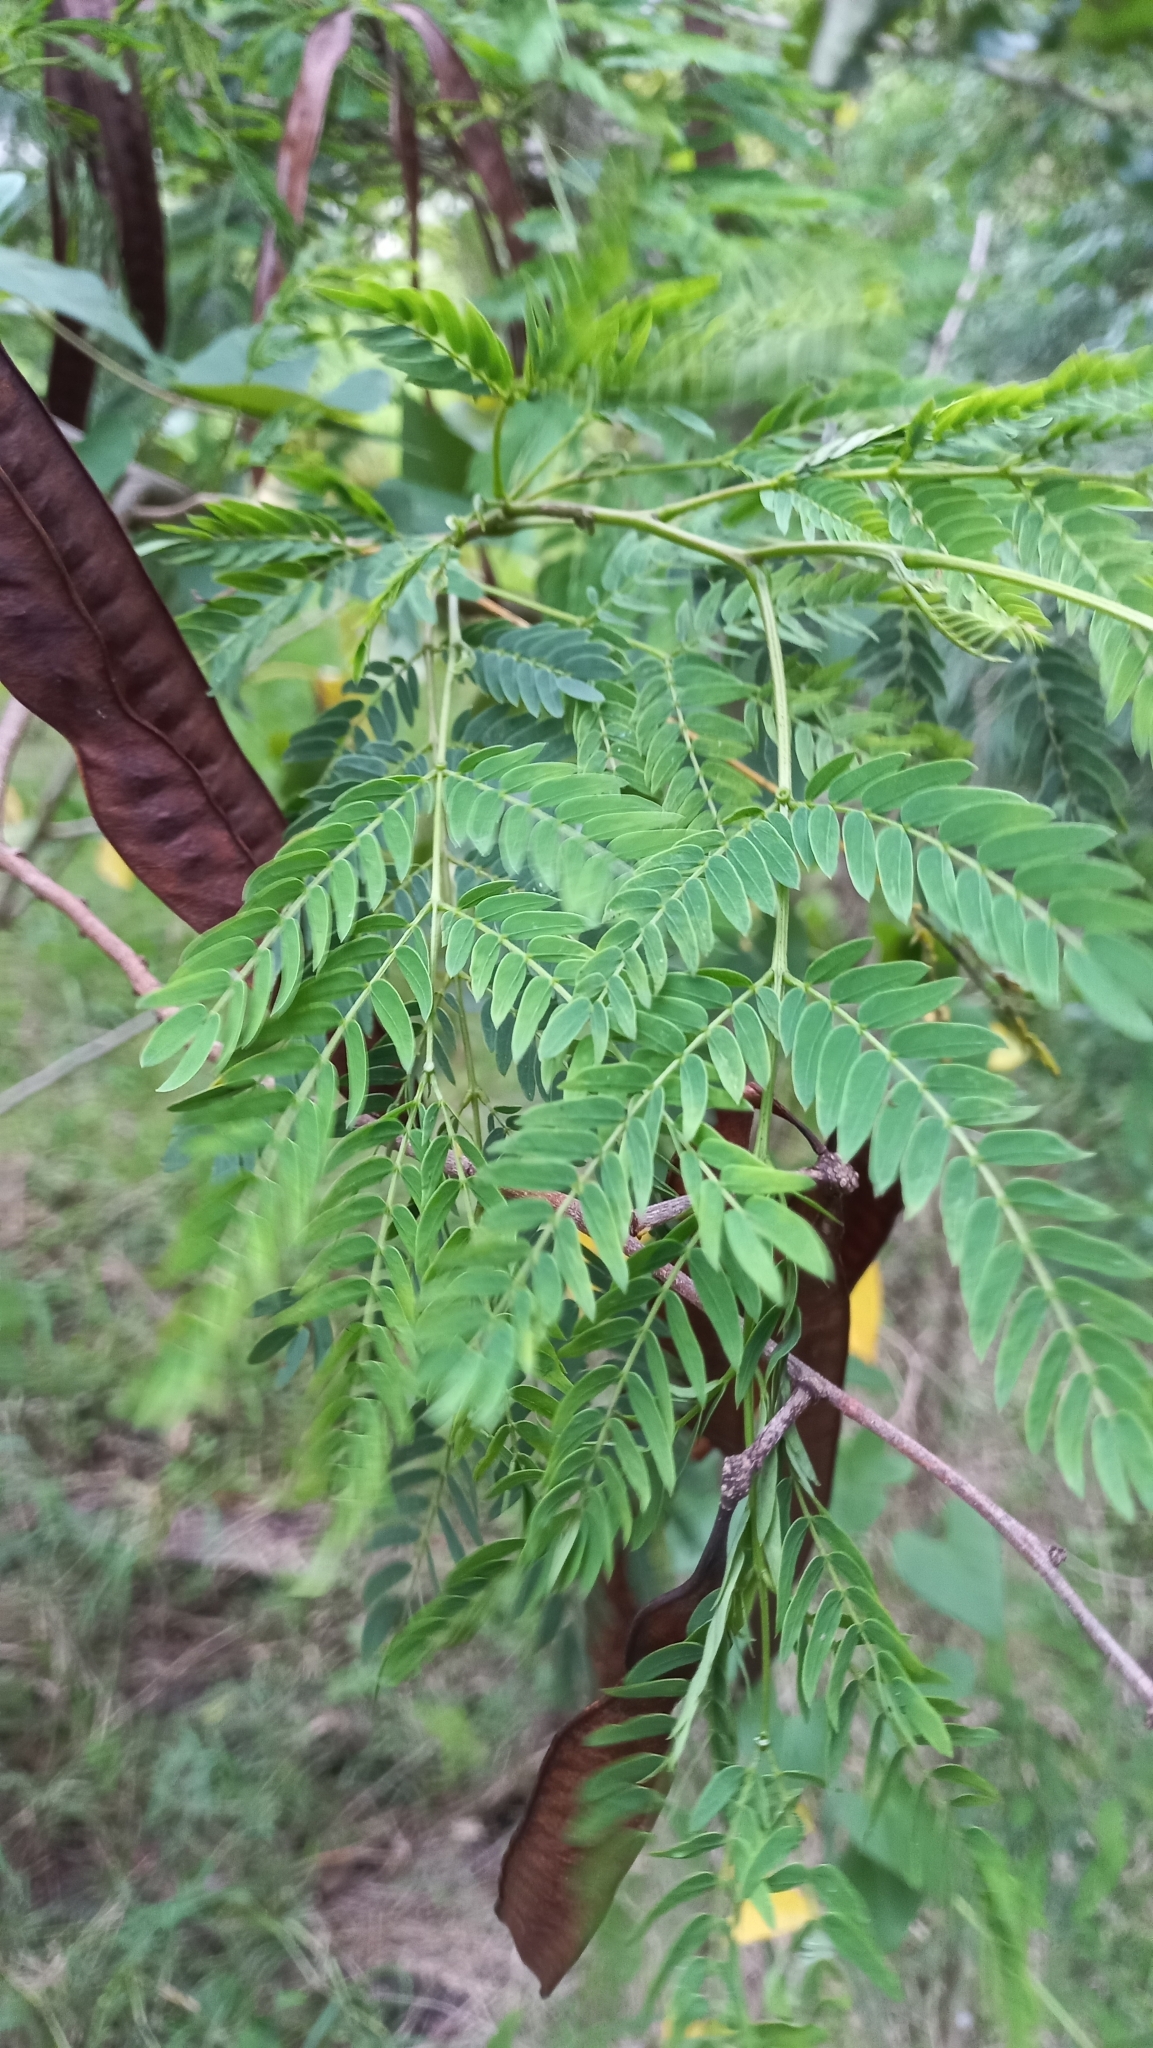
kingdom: Plantae
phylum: Tracheophyta
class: Magnoliopsida
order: Fabales
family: Fabaceae
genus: Leucaena
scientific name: Leucaena leucocephala
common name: White leadtree
